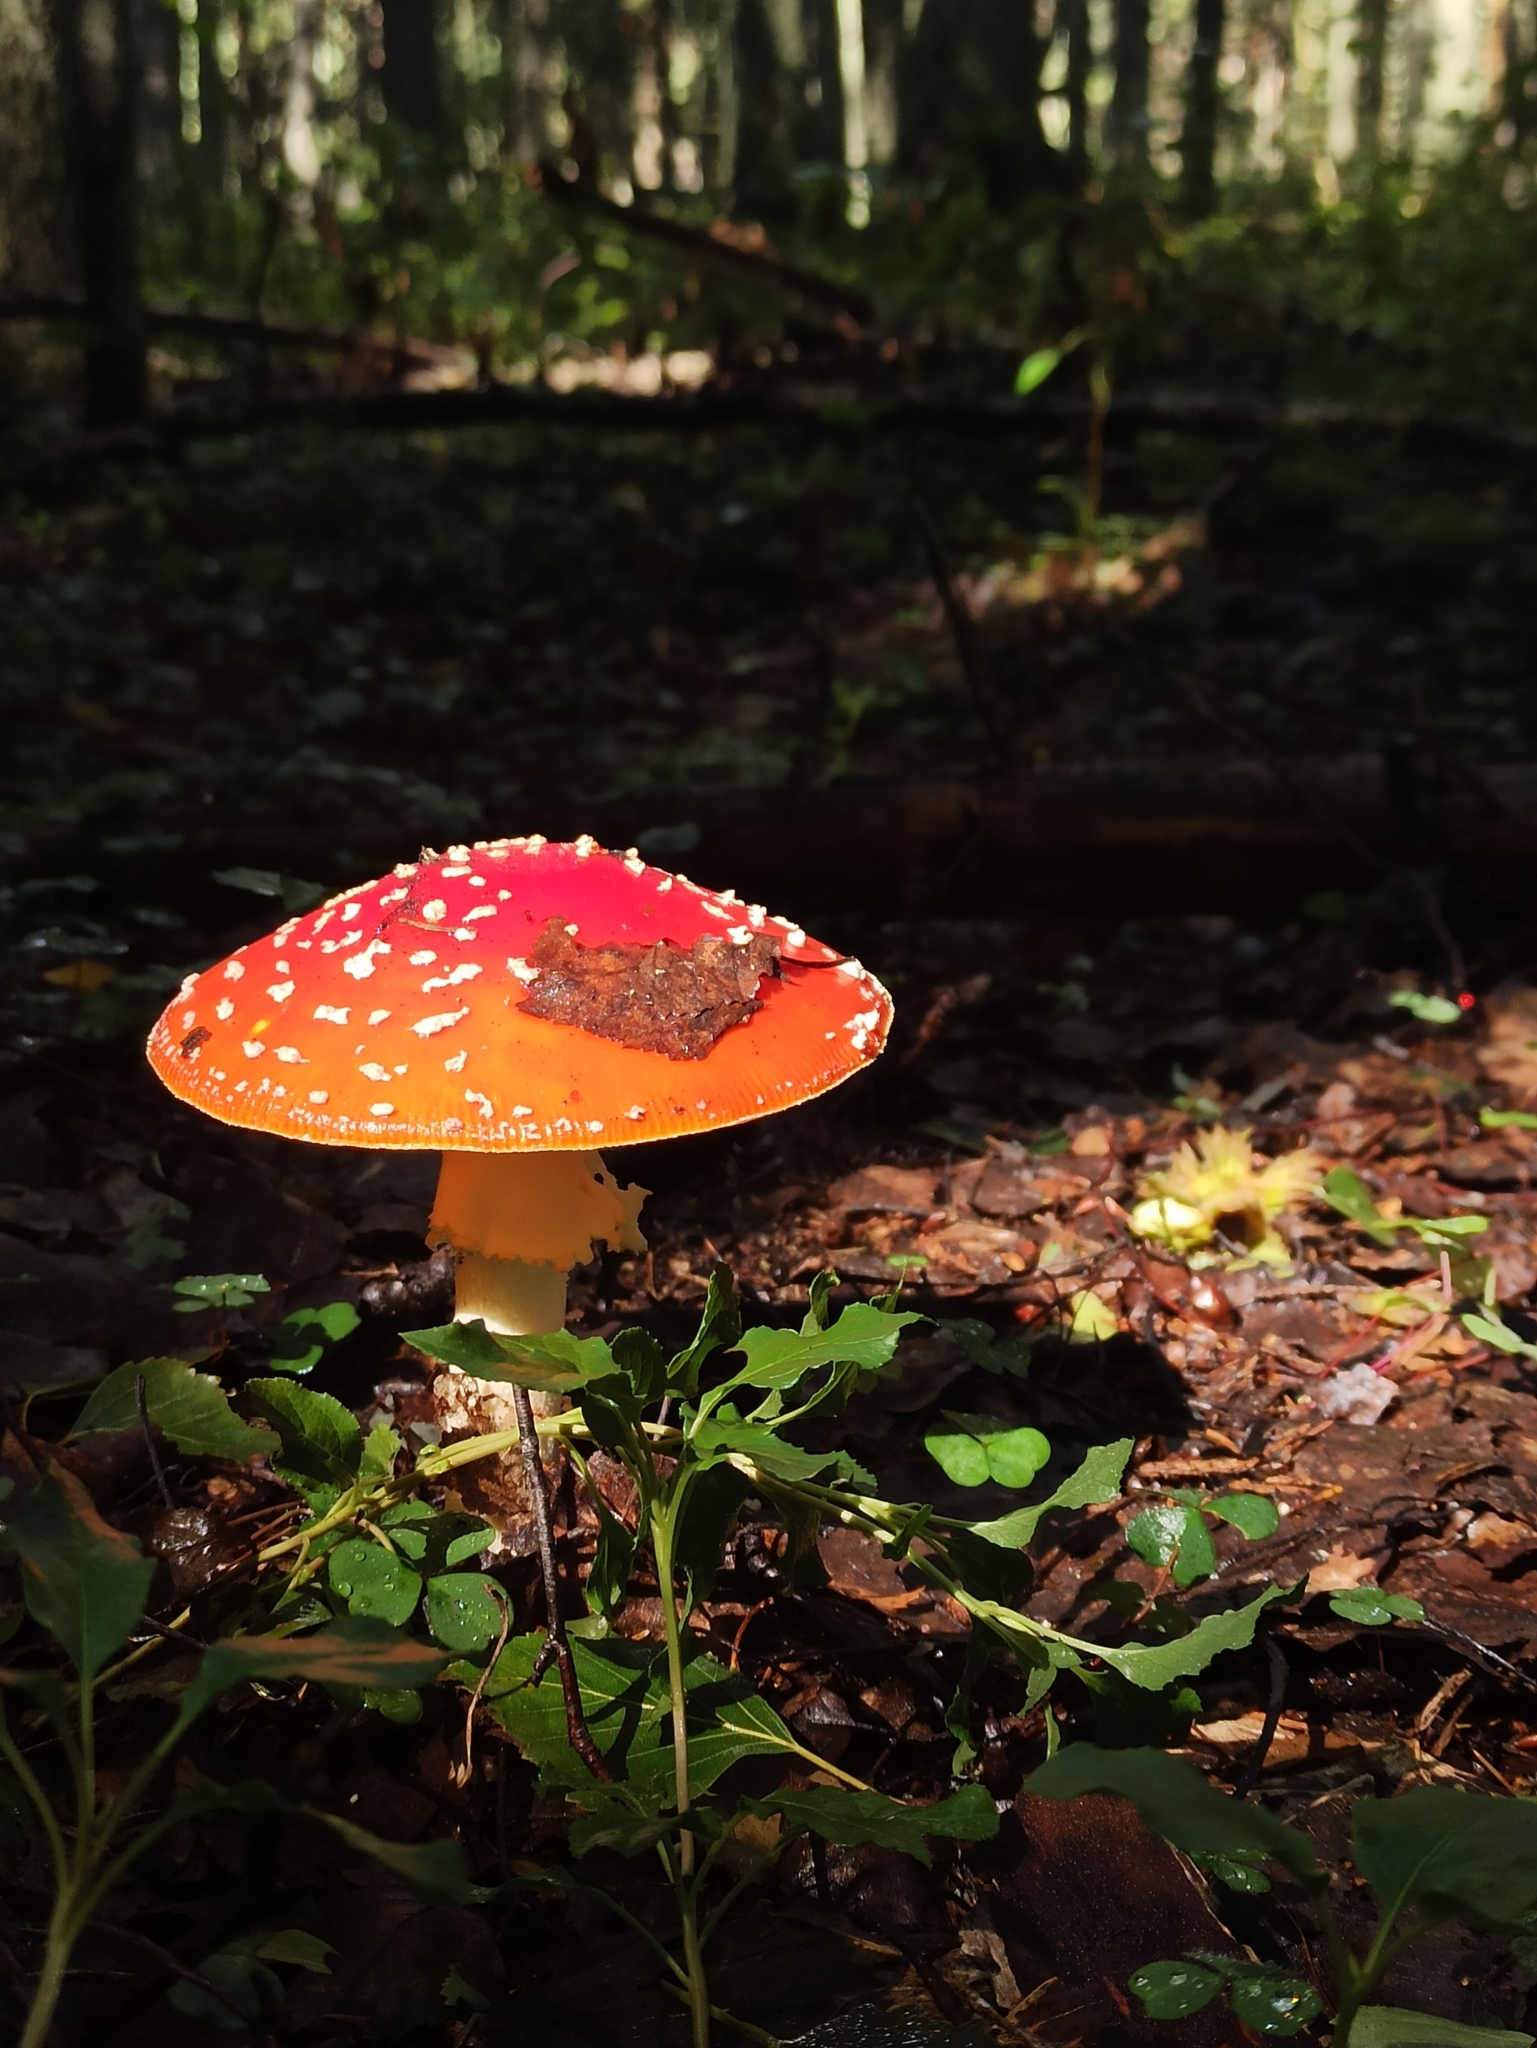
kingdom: Fungi
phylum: Basidiomycota
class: Agaricomycetes
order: Agaricales
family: Amanitaceae
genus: Amanita
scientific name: Amanita muscaria
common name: Fly agaric
